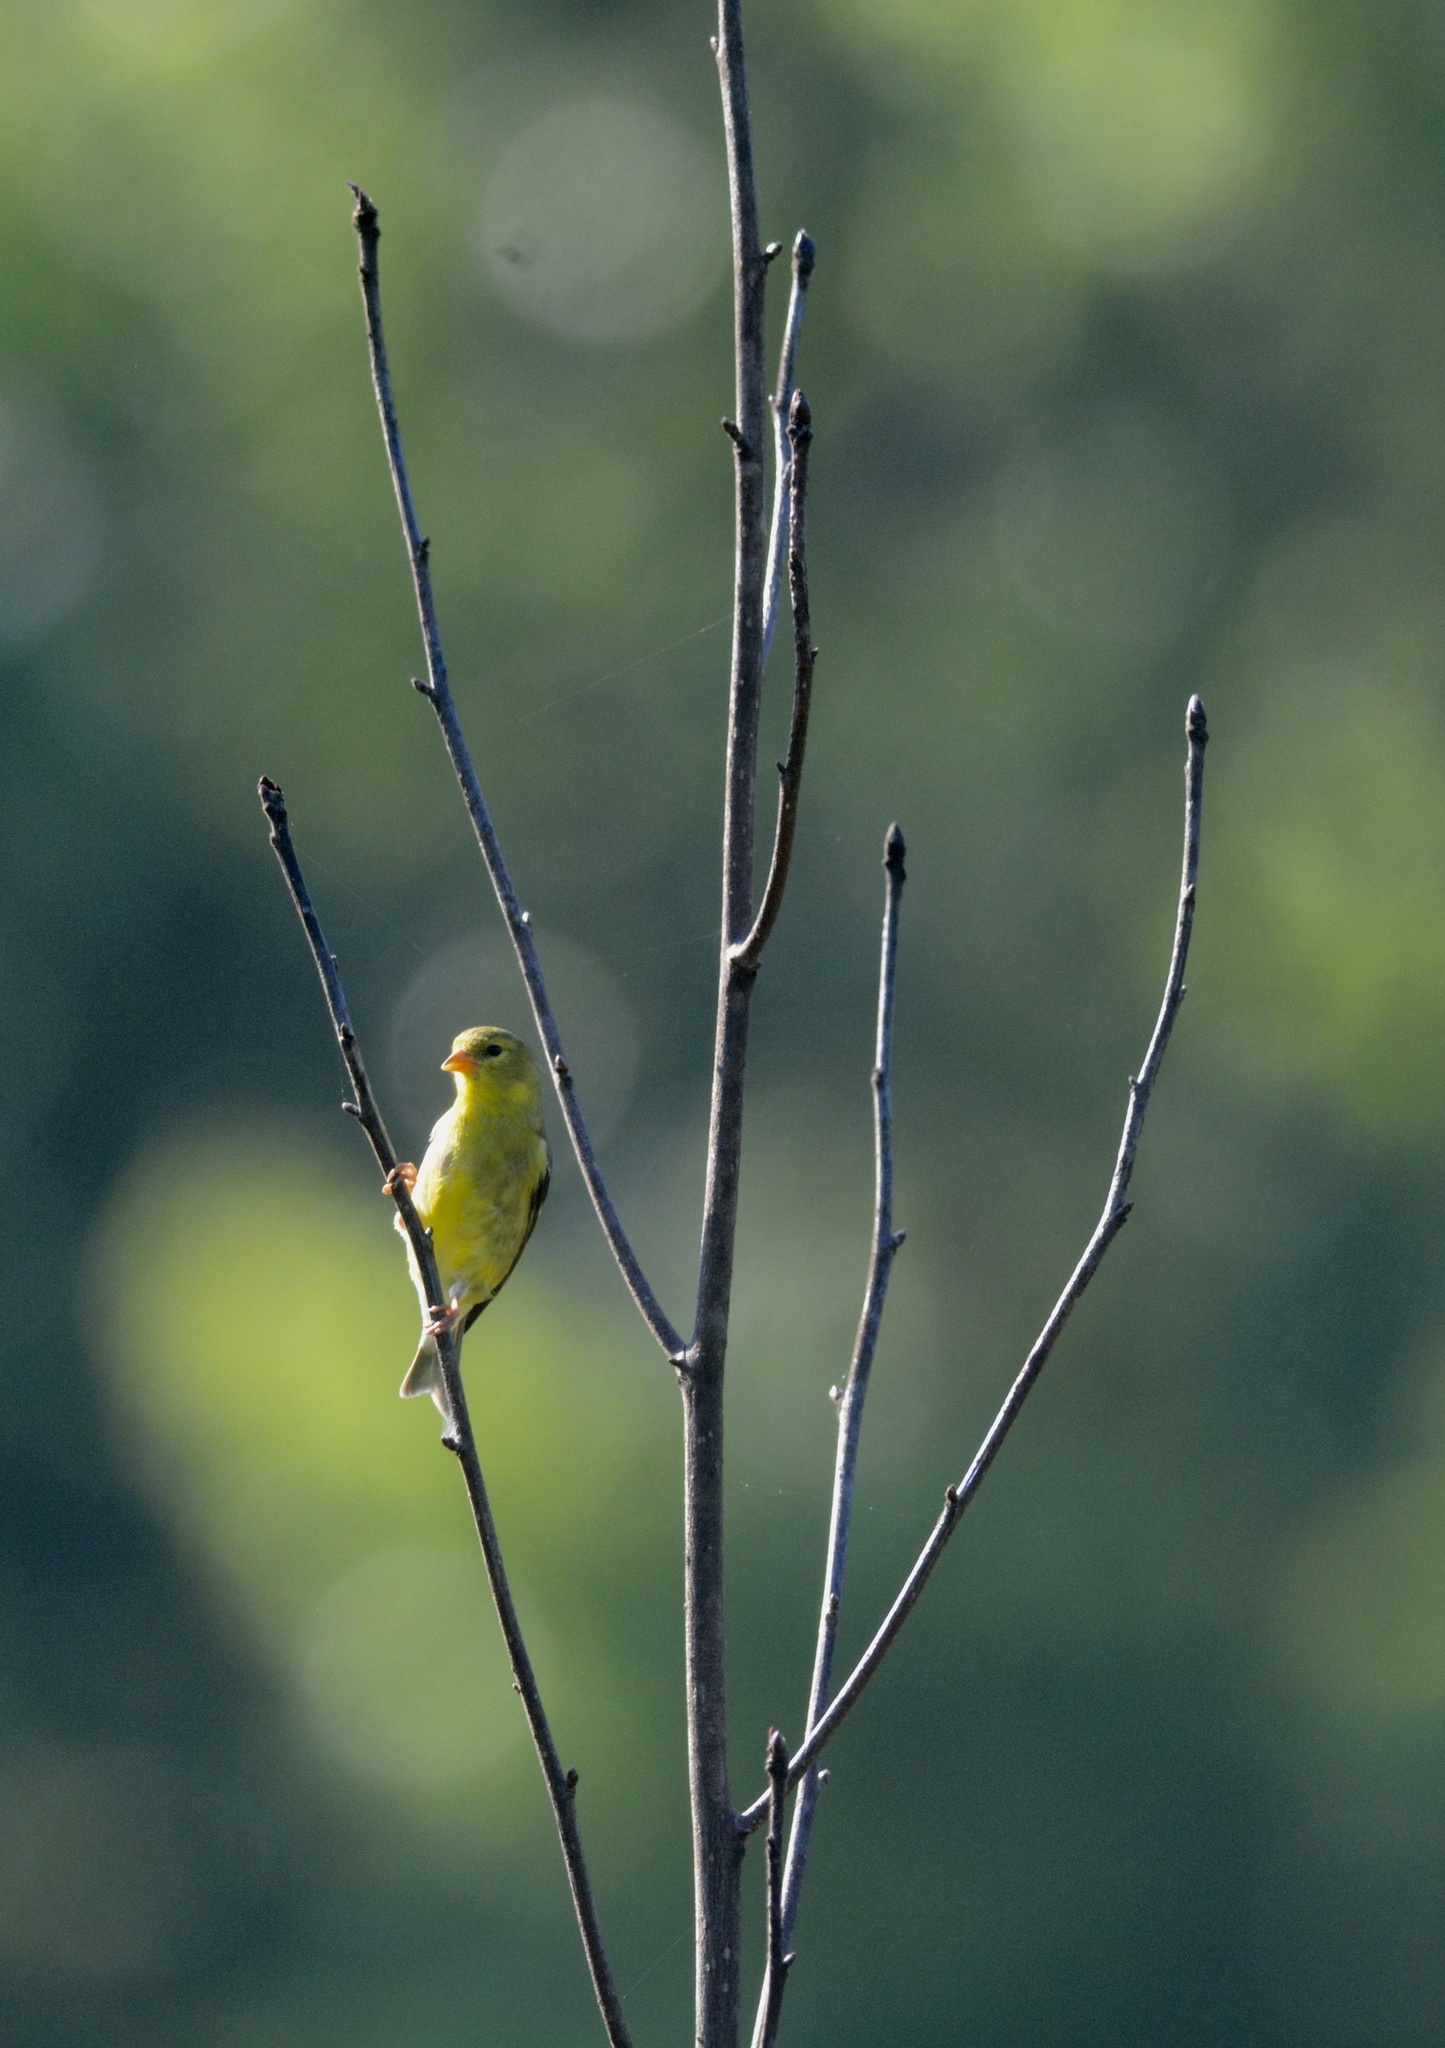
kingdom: Animalia
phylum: Chordata
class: Aves
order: Passeriformes
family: Fringillidae
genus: Spinus
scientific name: Spinus tristis
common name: American goldfinch
